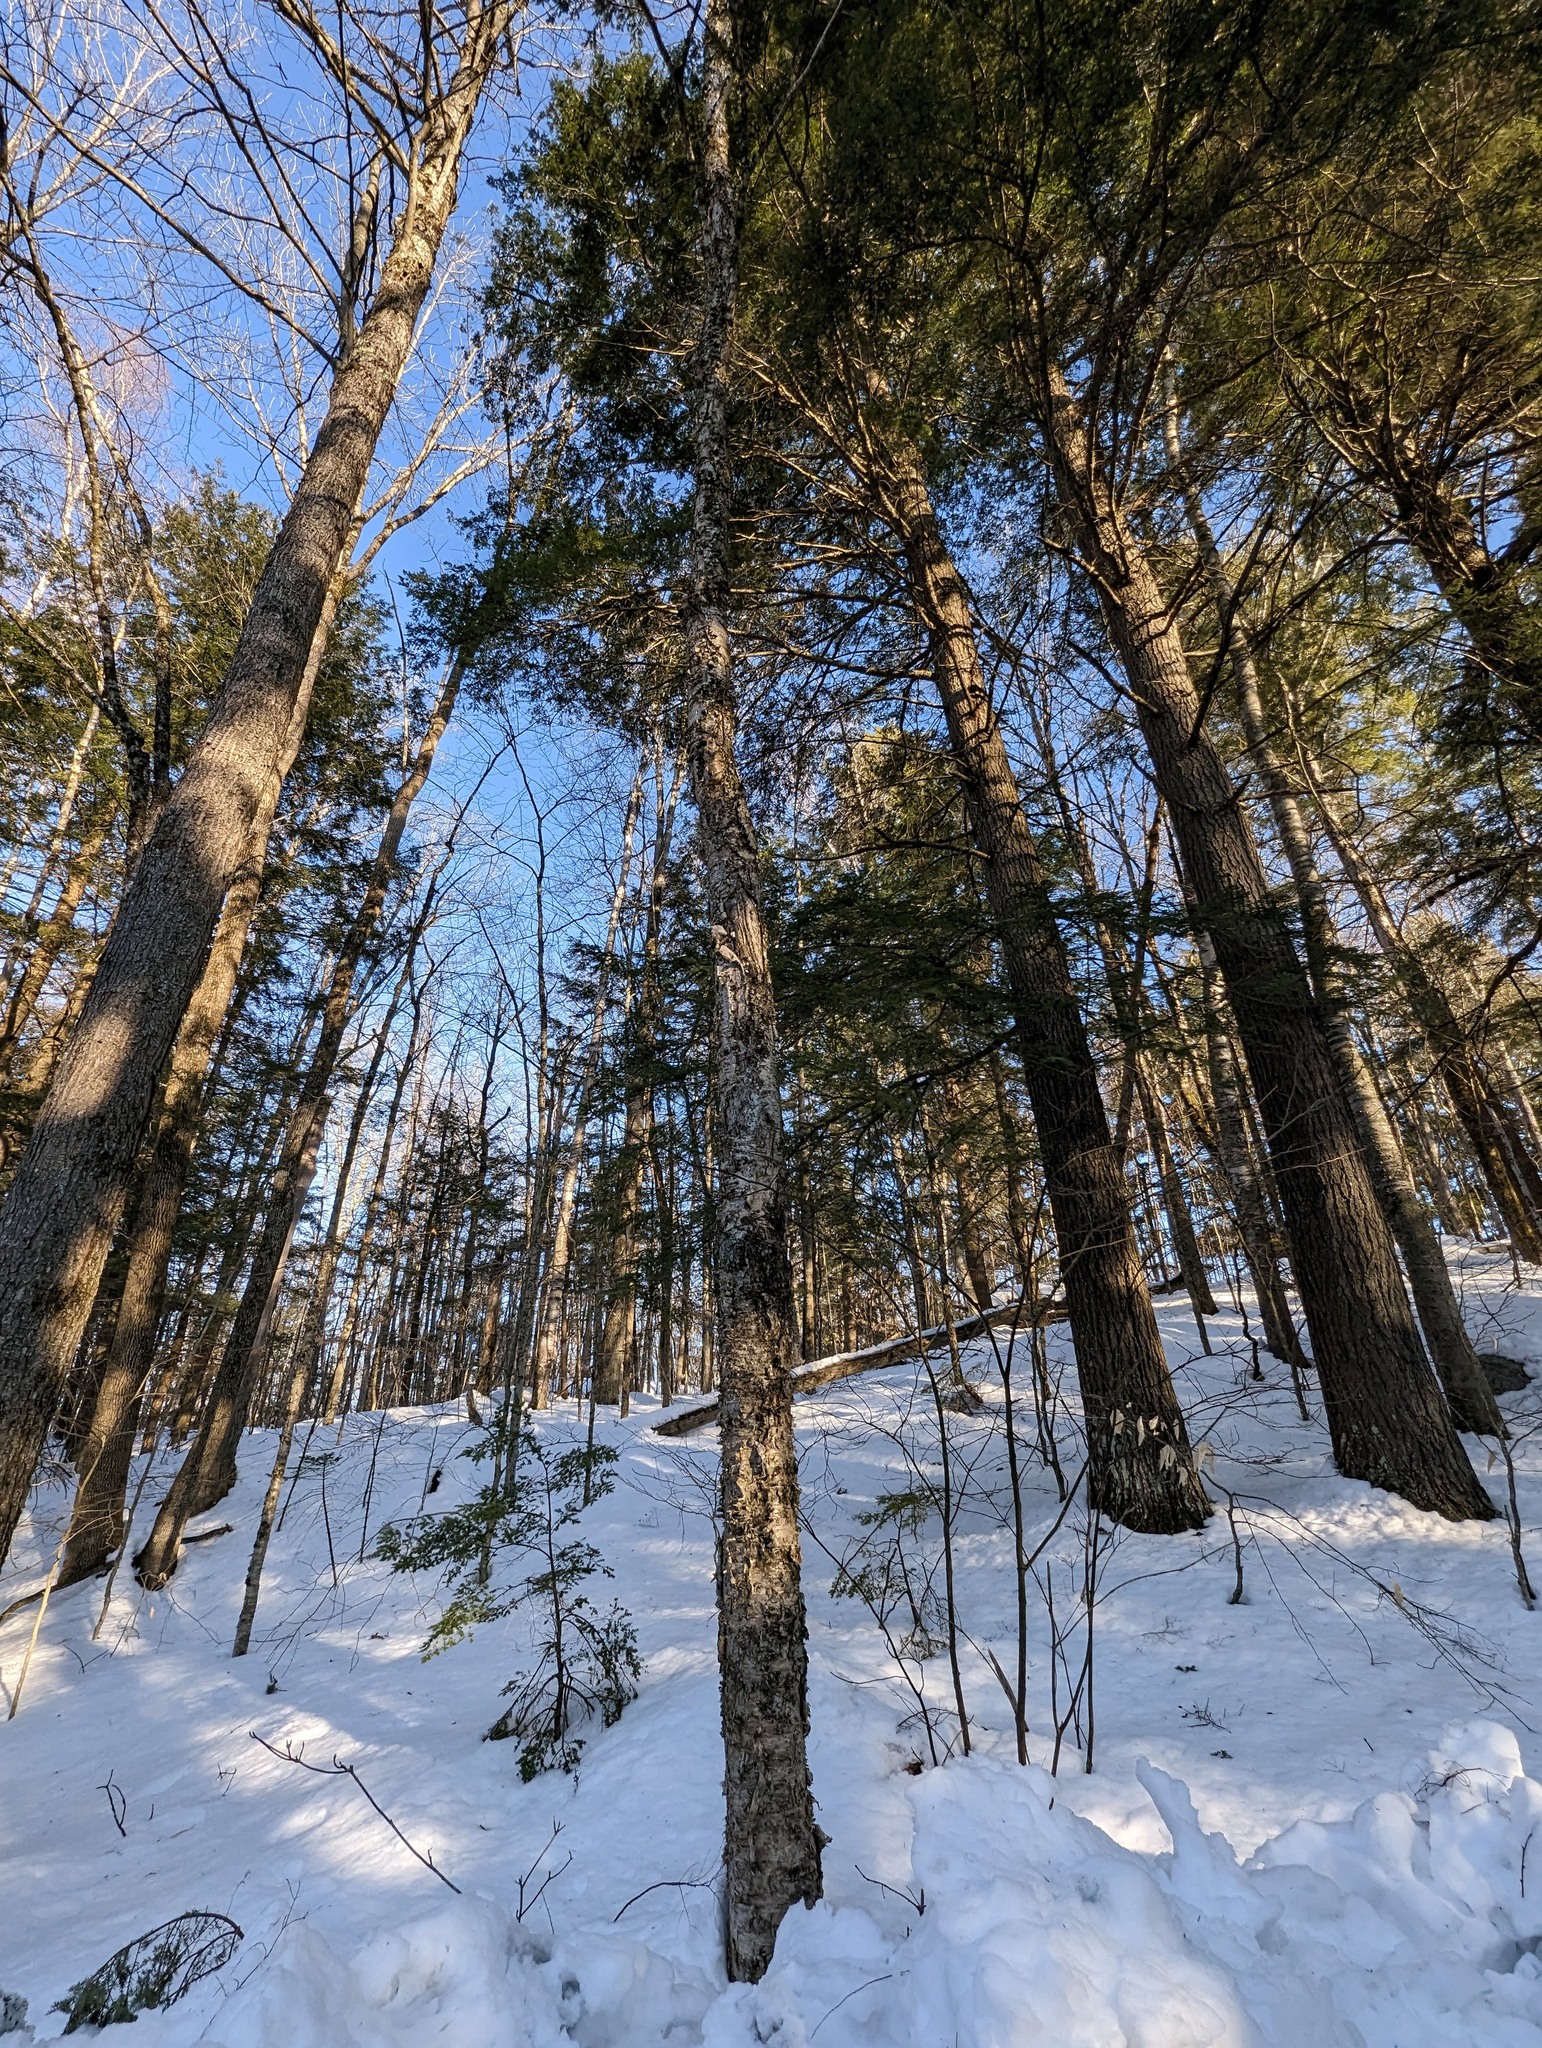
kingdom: Plantae
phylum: Tracheophyta
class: Magnoliopsida
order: Fagales
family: Betulaceae
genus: Betula
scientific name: Betula alleghaniensis
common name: Yellow birch
